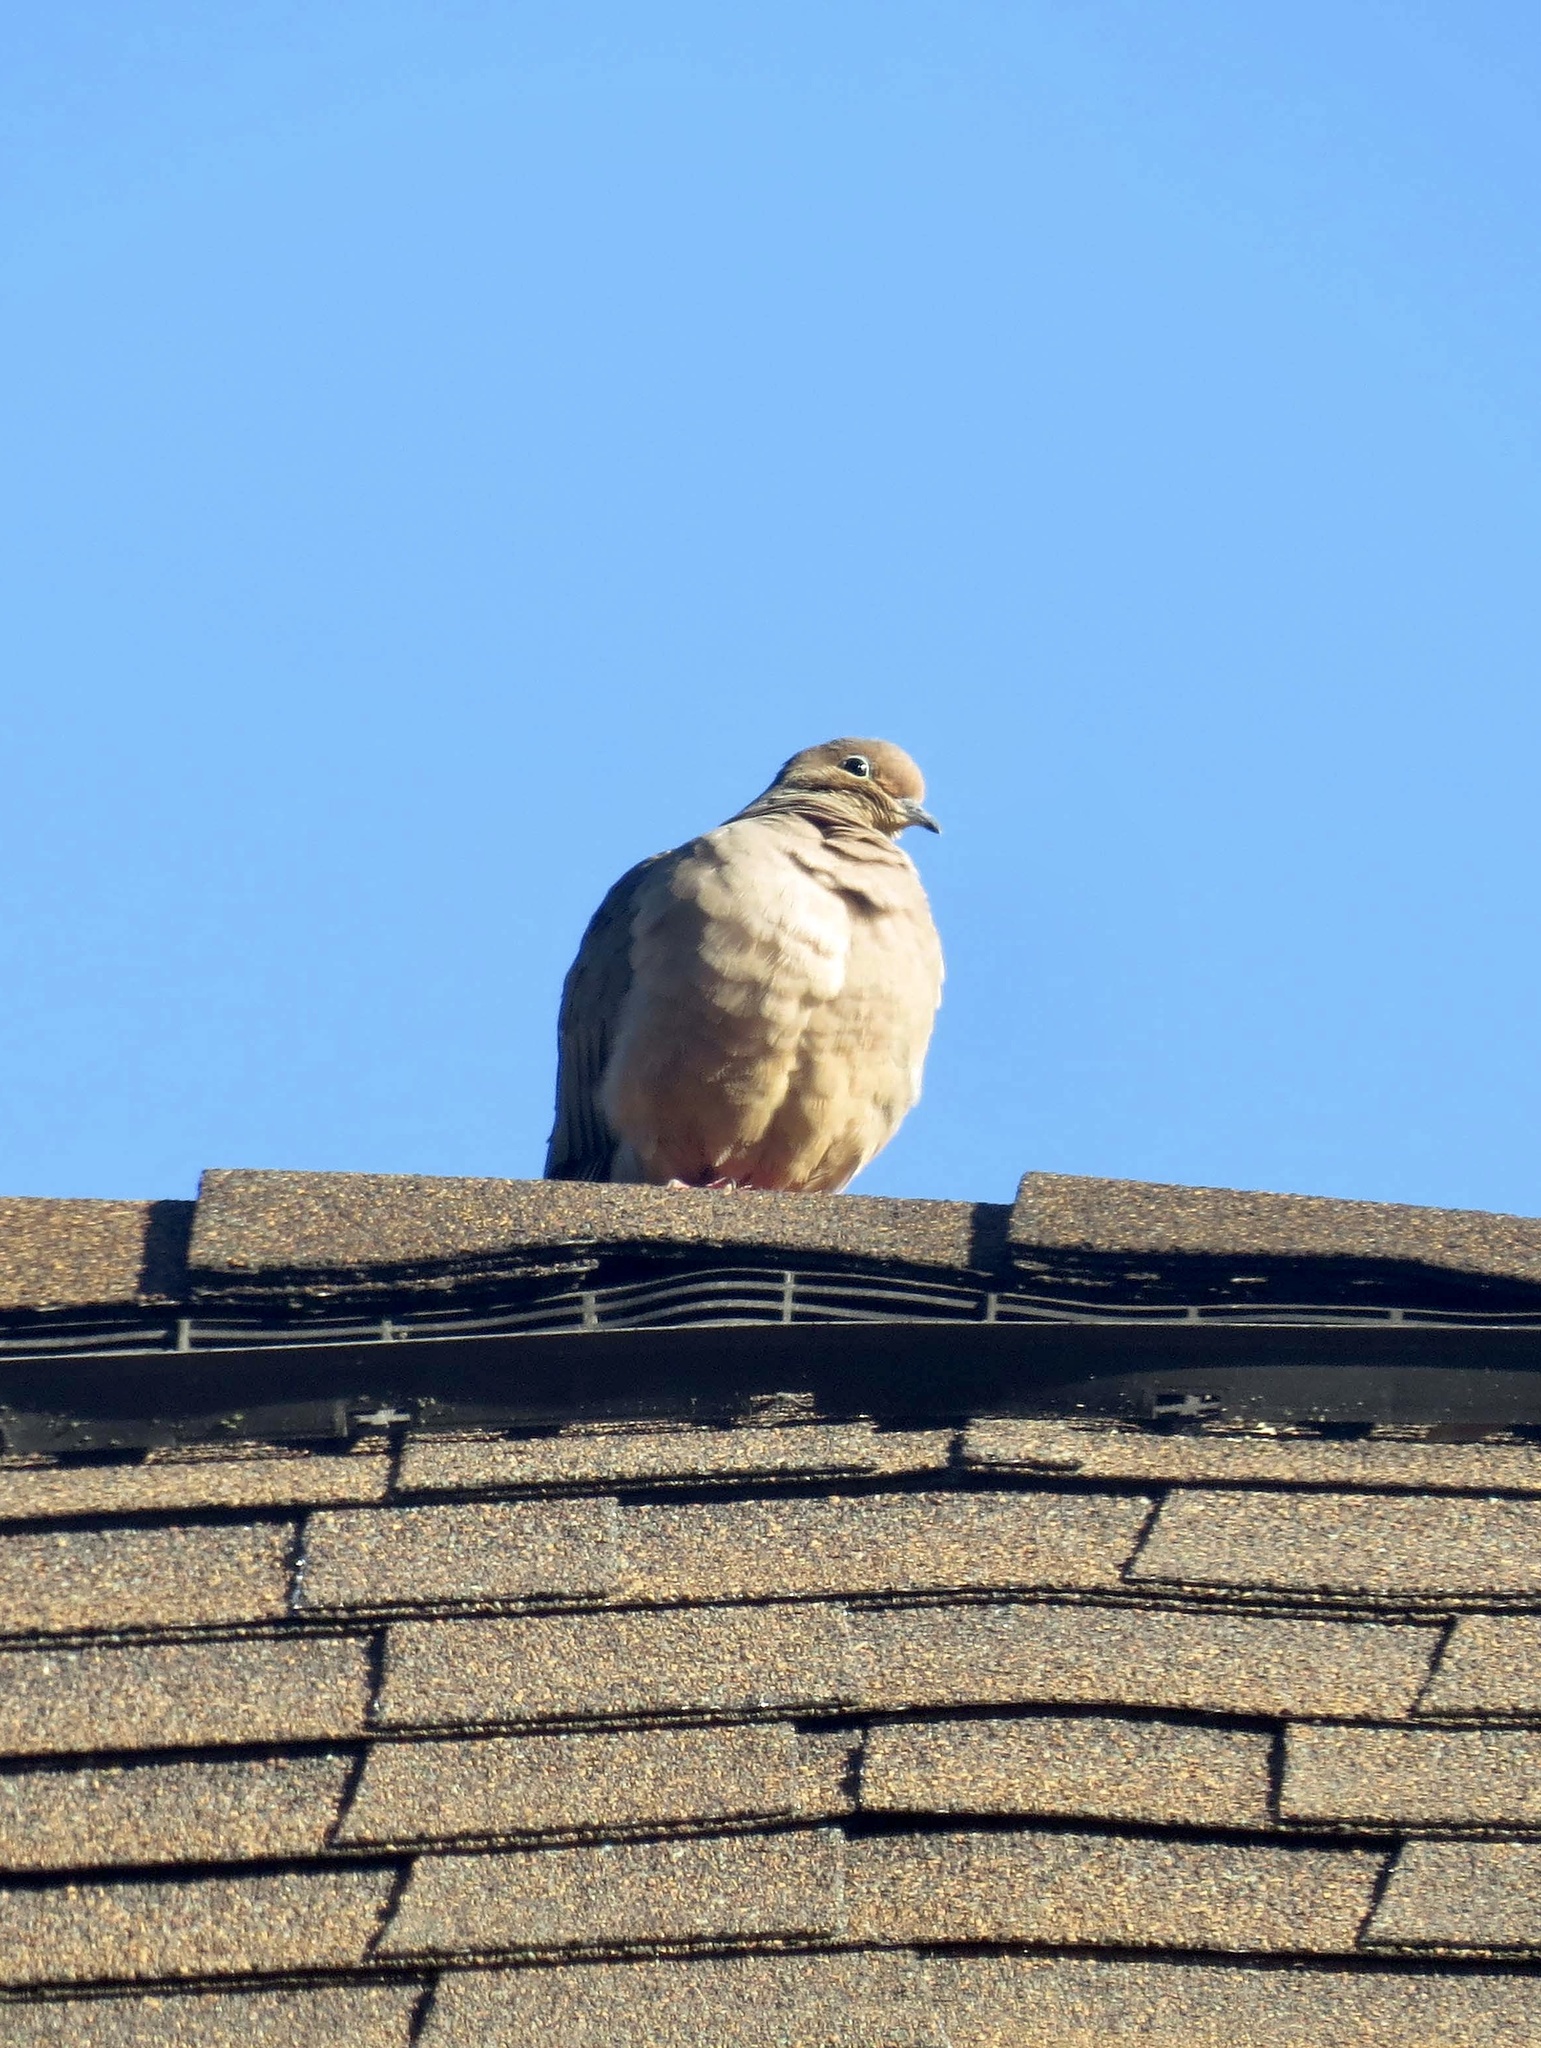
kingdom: Animalia
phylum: Chordata
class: Aves
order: Columbiformes
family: Columbidae
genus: Zenaida
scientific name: Zenaida macroura
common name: Mourning dove
